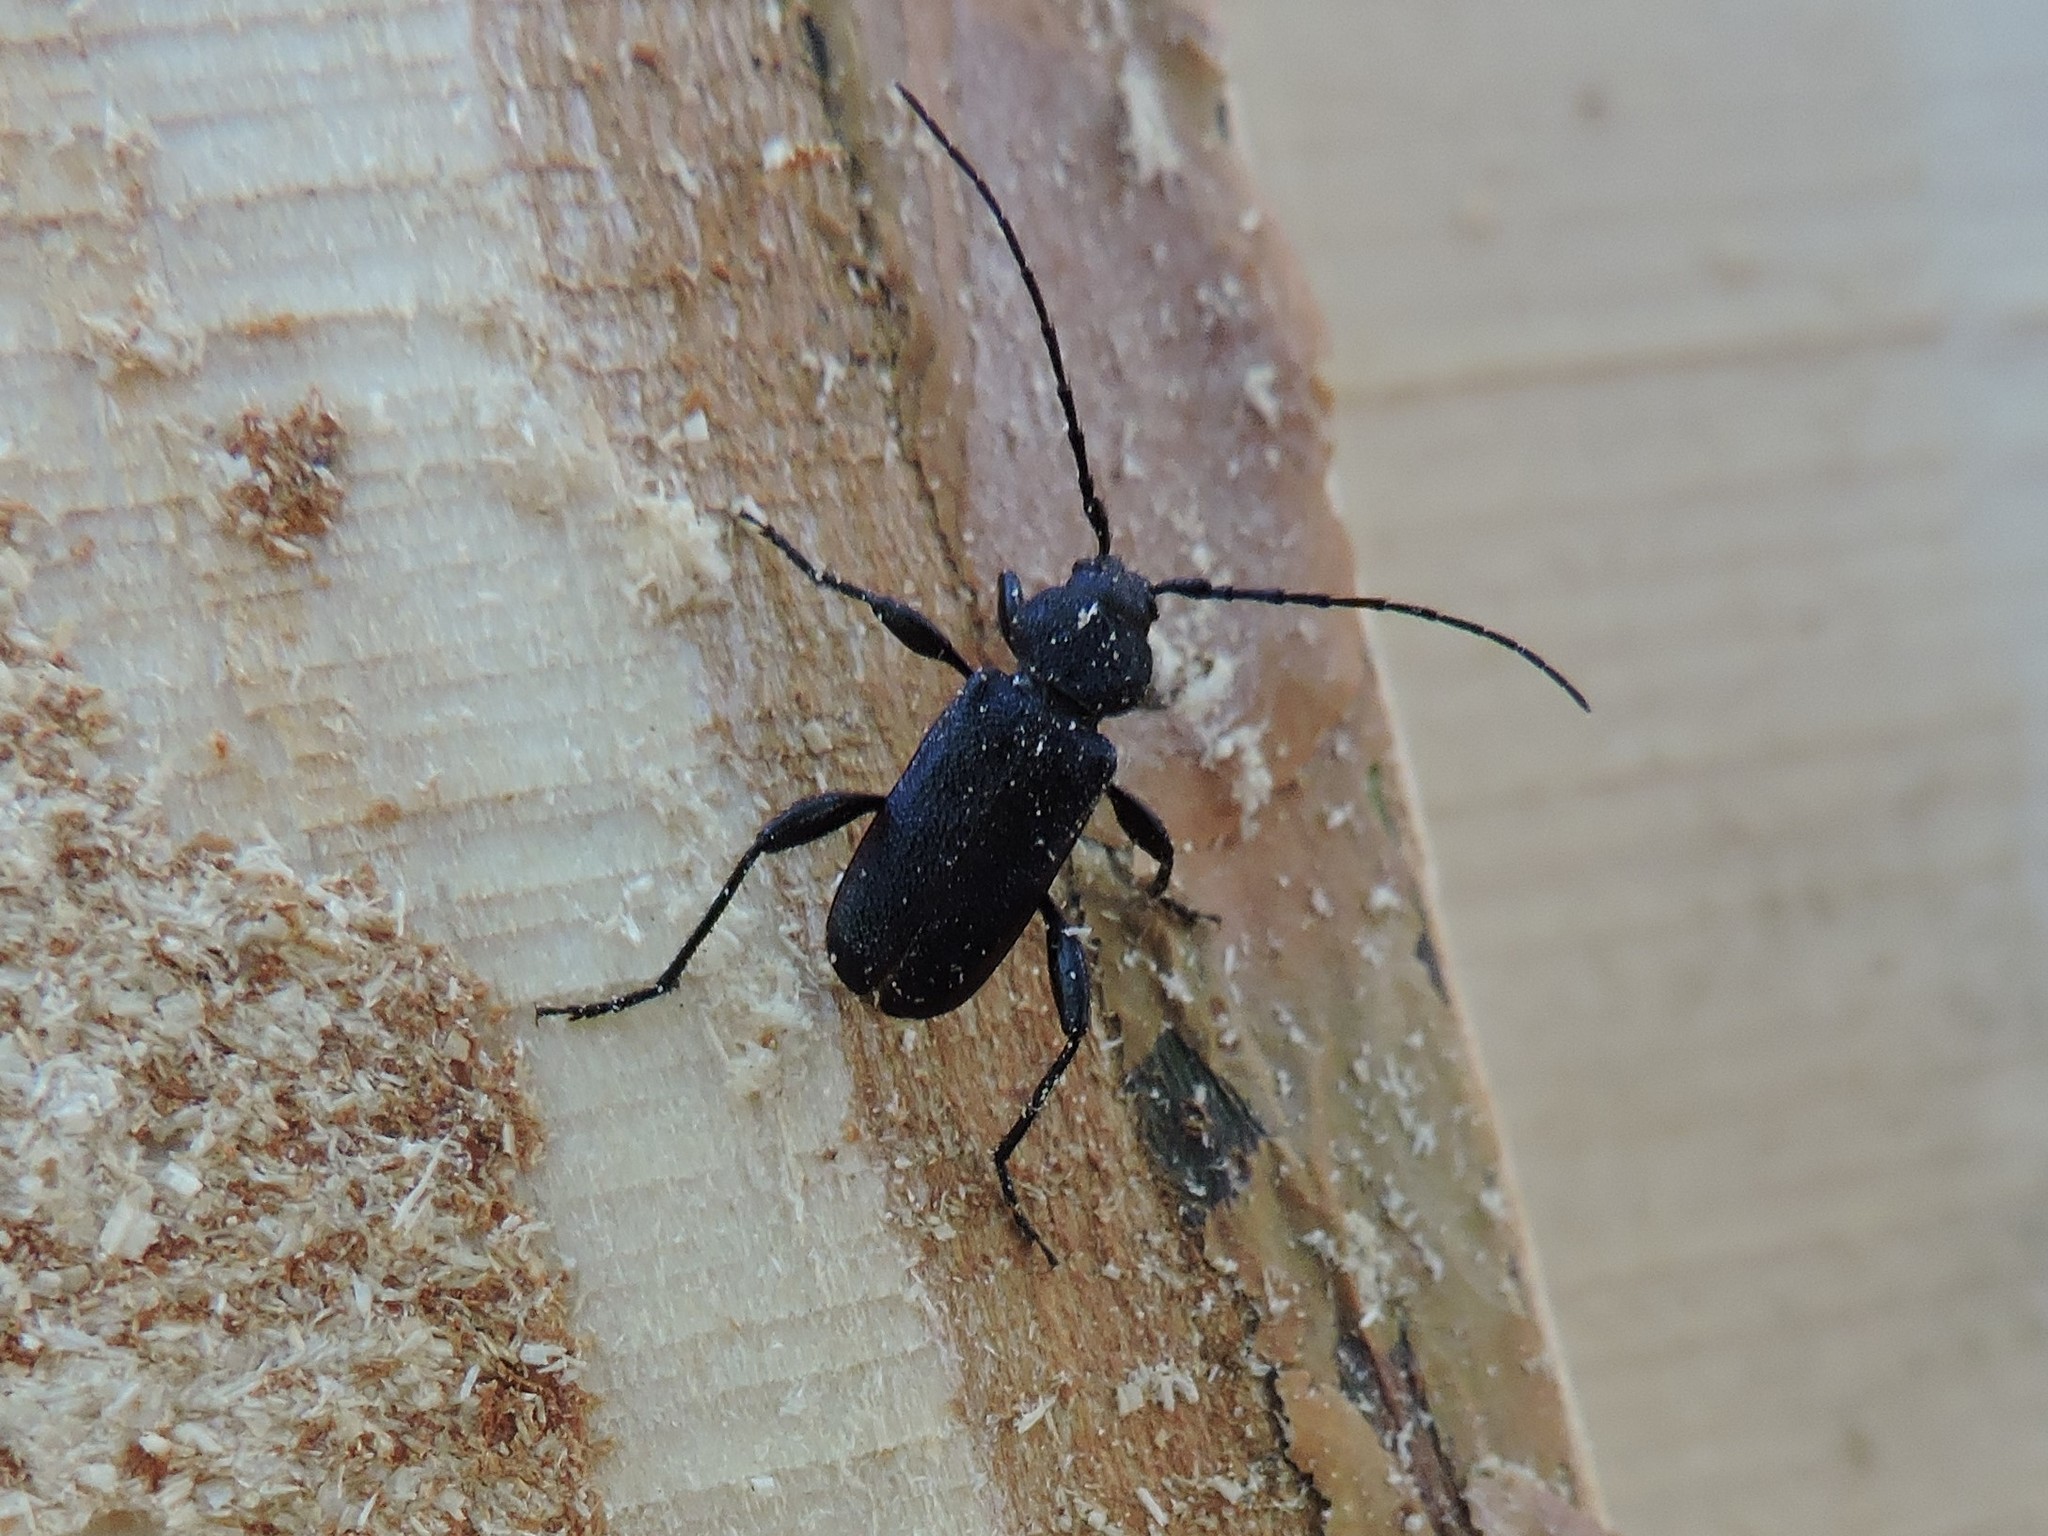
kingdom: Animalia
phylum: Arthropoda
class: Insecta
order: Coleoptera
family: Cerambycidae
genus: Callidium
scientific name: Callidium violaceum
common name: Violet tanbark beetle
